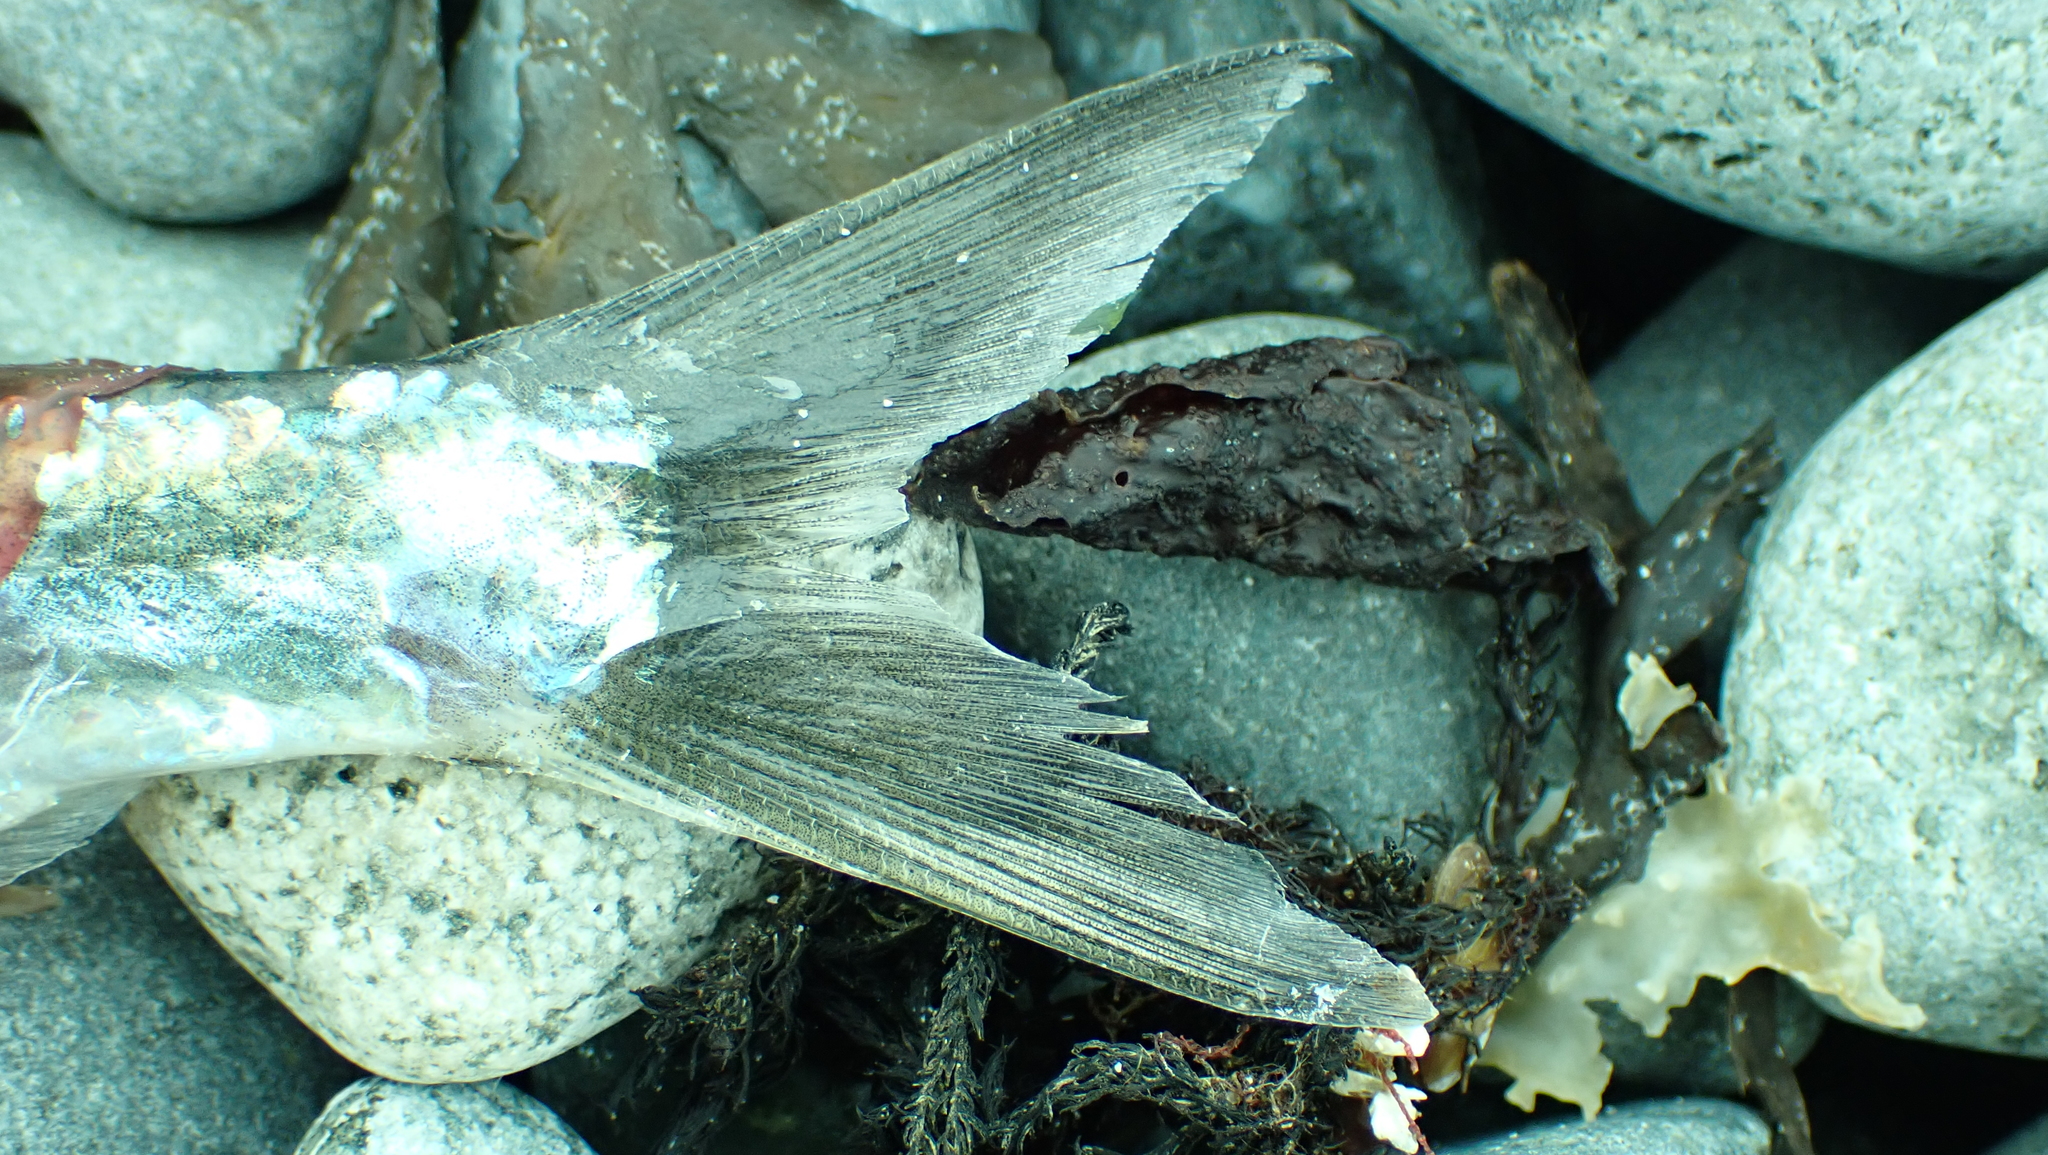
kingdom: Animalia
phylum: Chordata
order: Clupeiformes
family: Clupeidae
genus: Clupea
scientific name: Clupea pallasii
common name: Pacific herring
